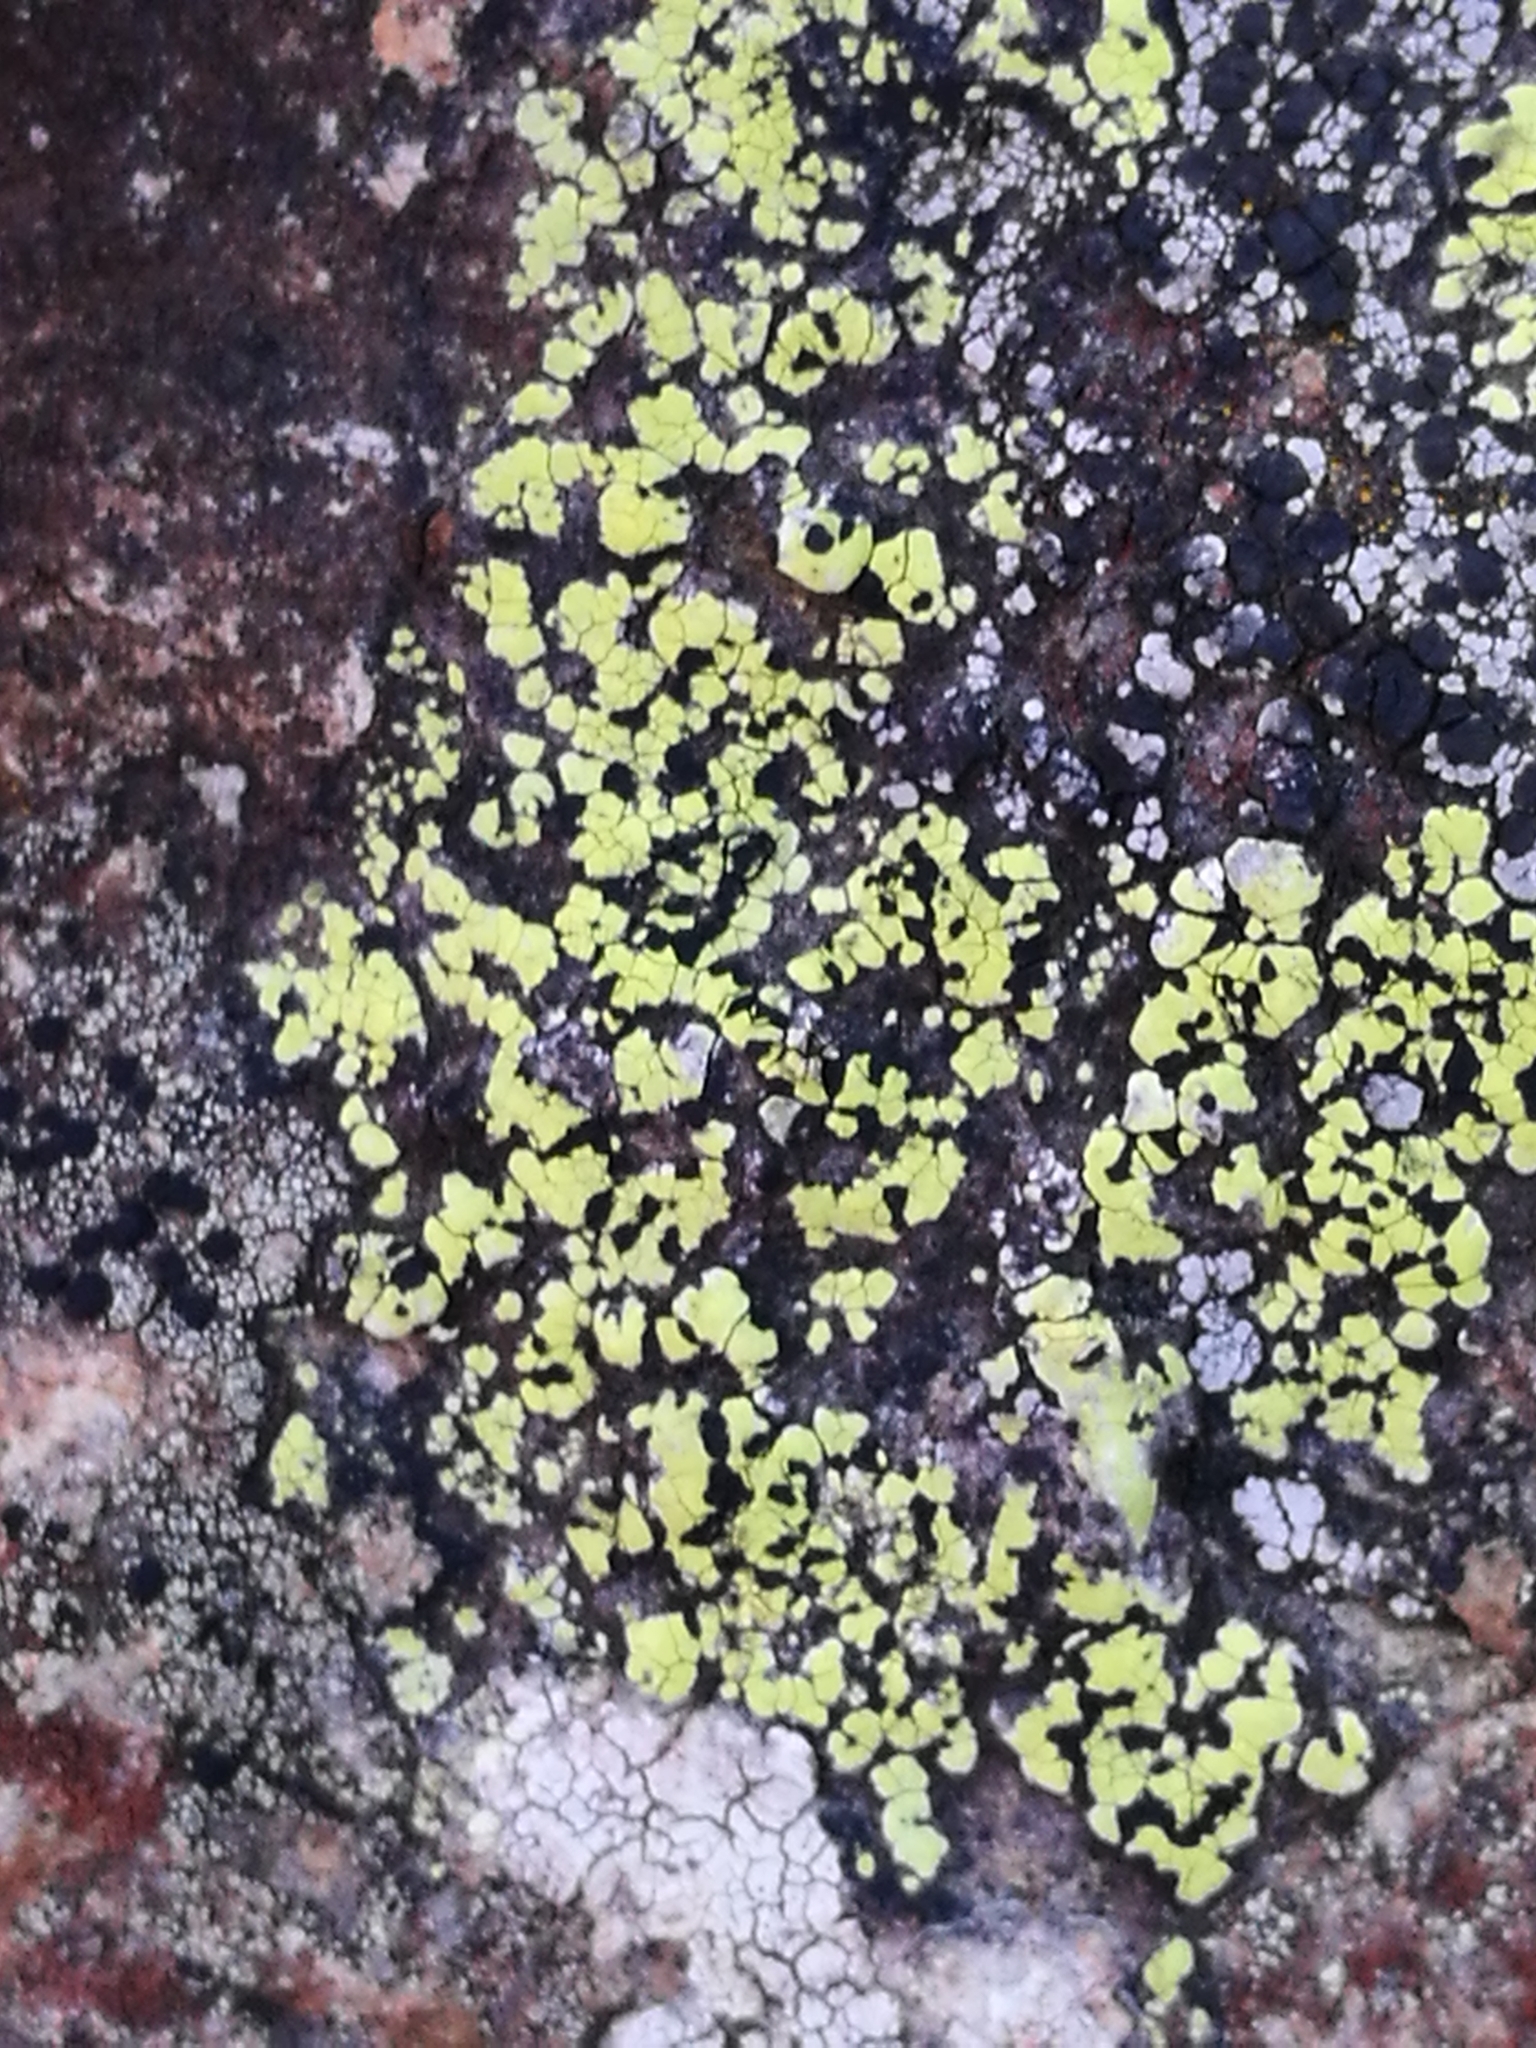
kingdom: Fungi
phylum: Ascomycota
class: Lecanoromycetes
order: Rhizocarpales
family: Rhizocarpaceae
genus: Rhizocarpon
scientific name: Rhizocarpon geographicum
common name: Yellow map lichen
